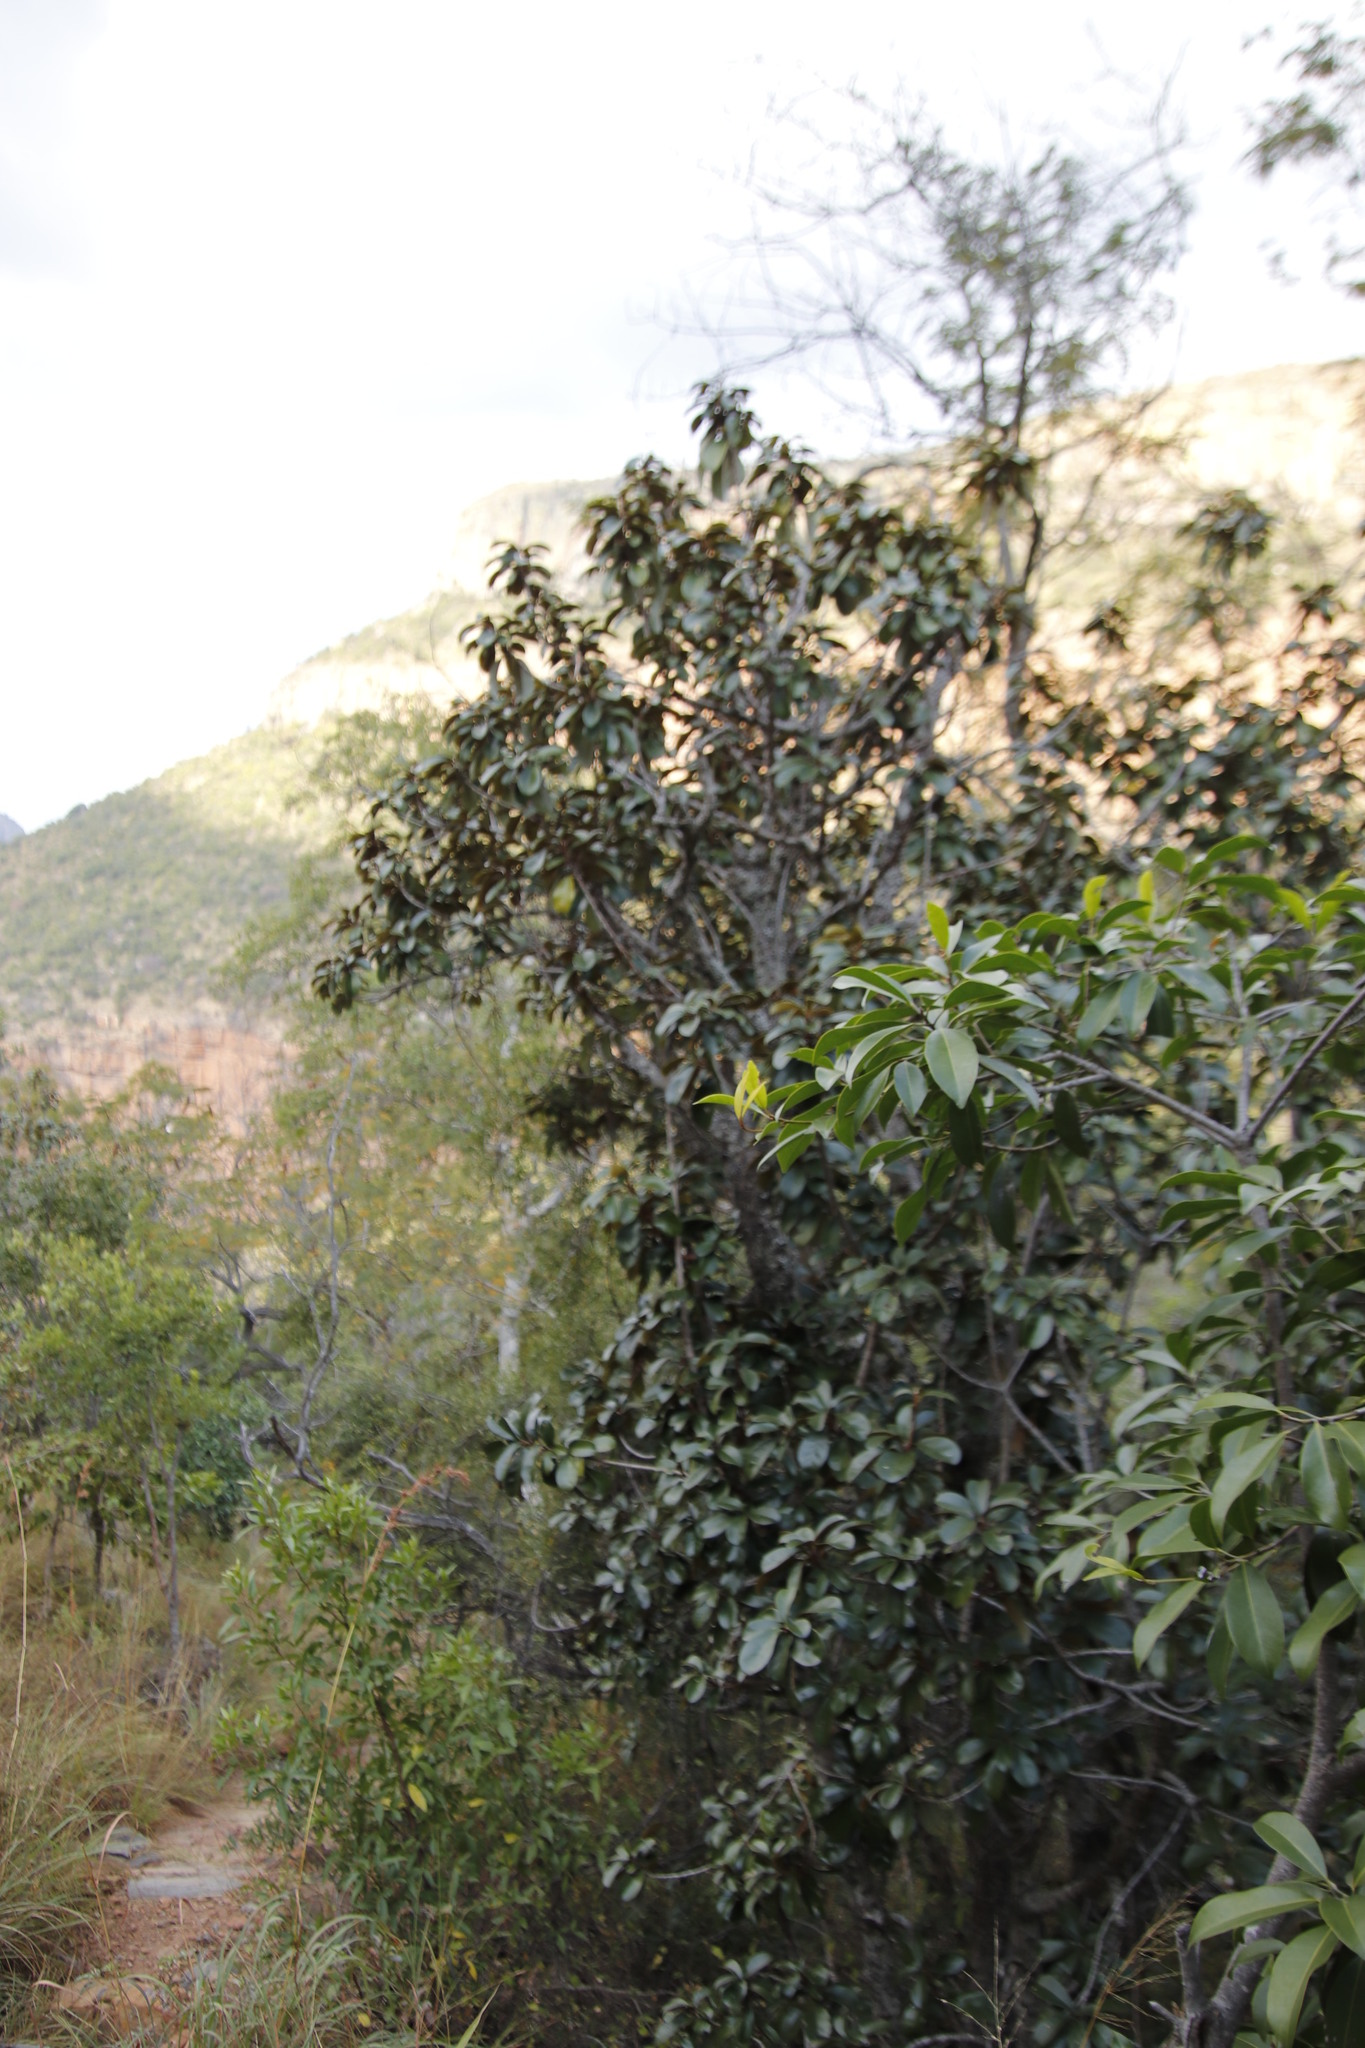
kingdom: Plantae
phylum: Tracheophyta
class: Magnoliopsida
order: Ericales
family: Sapotaceae
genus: Englerophytum
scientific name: Englerophytum magalismontanum
